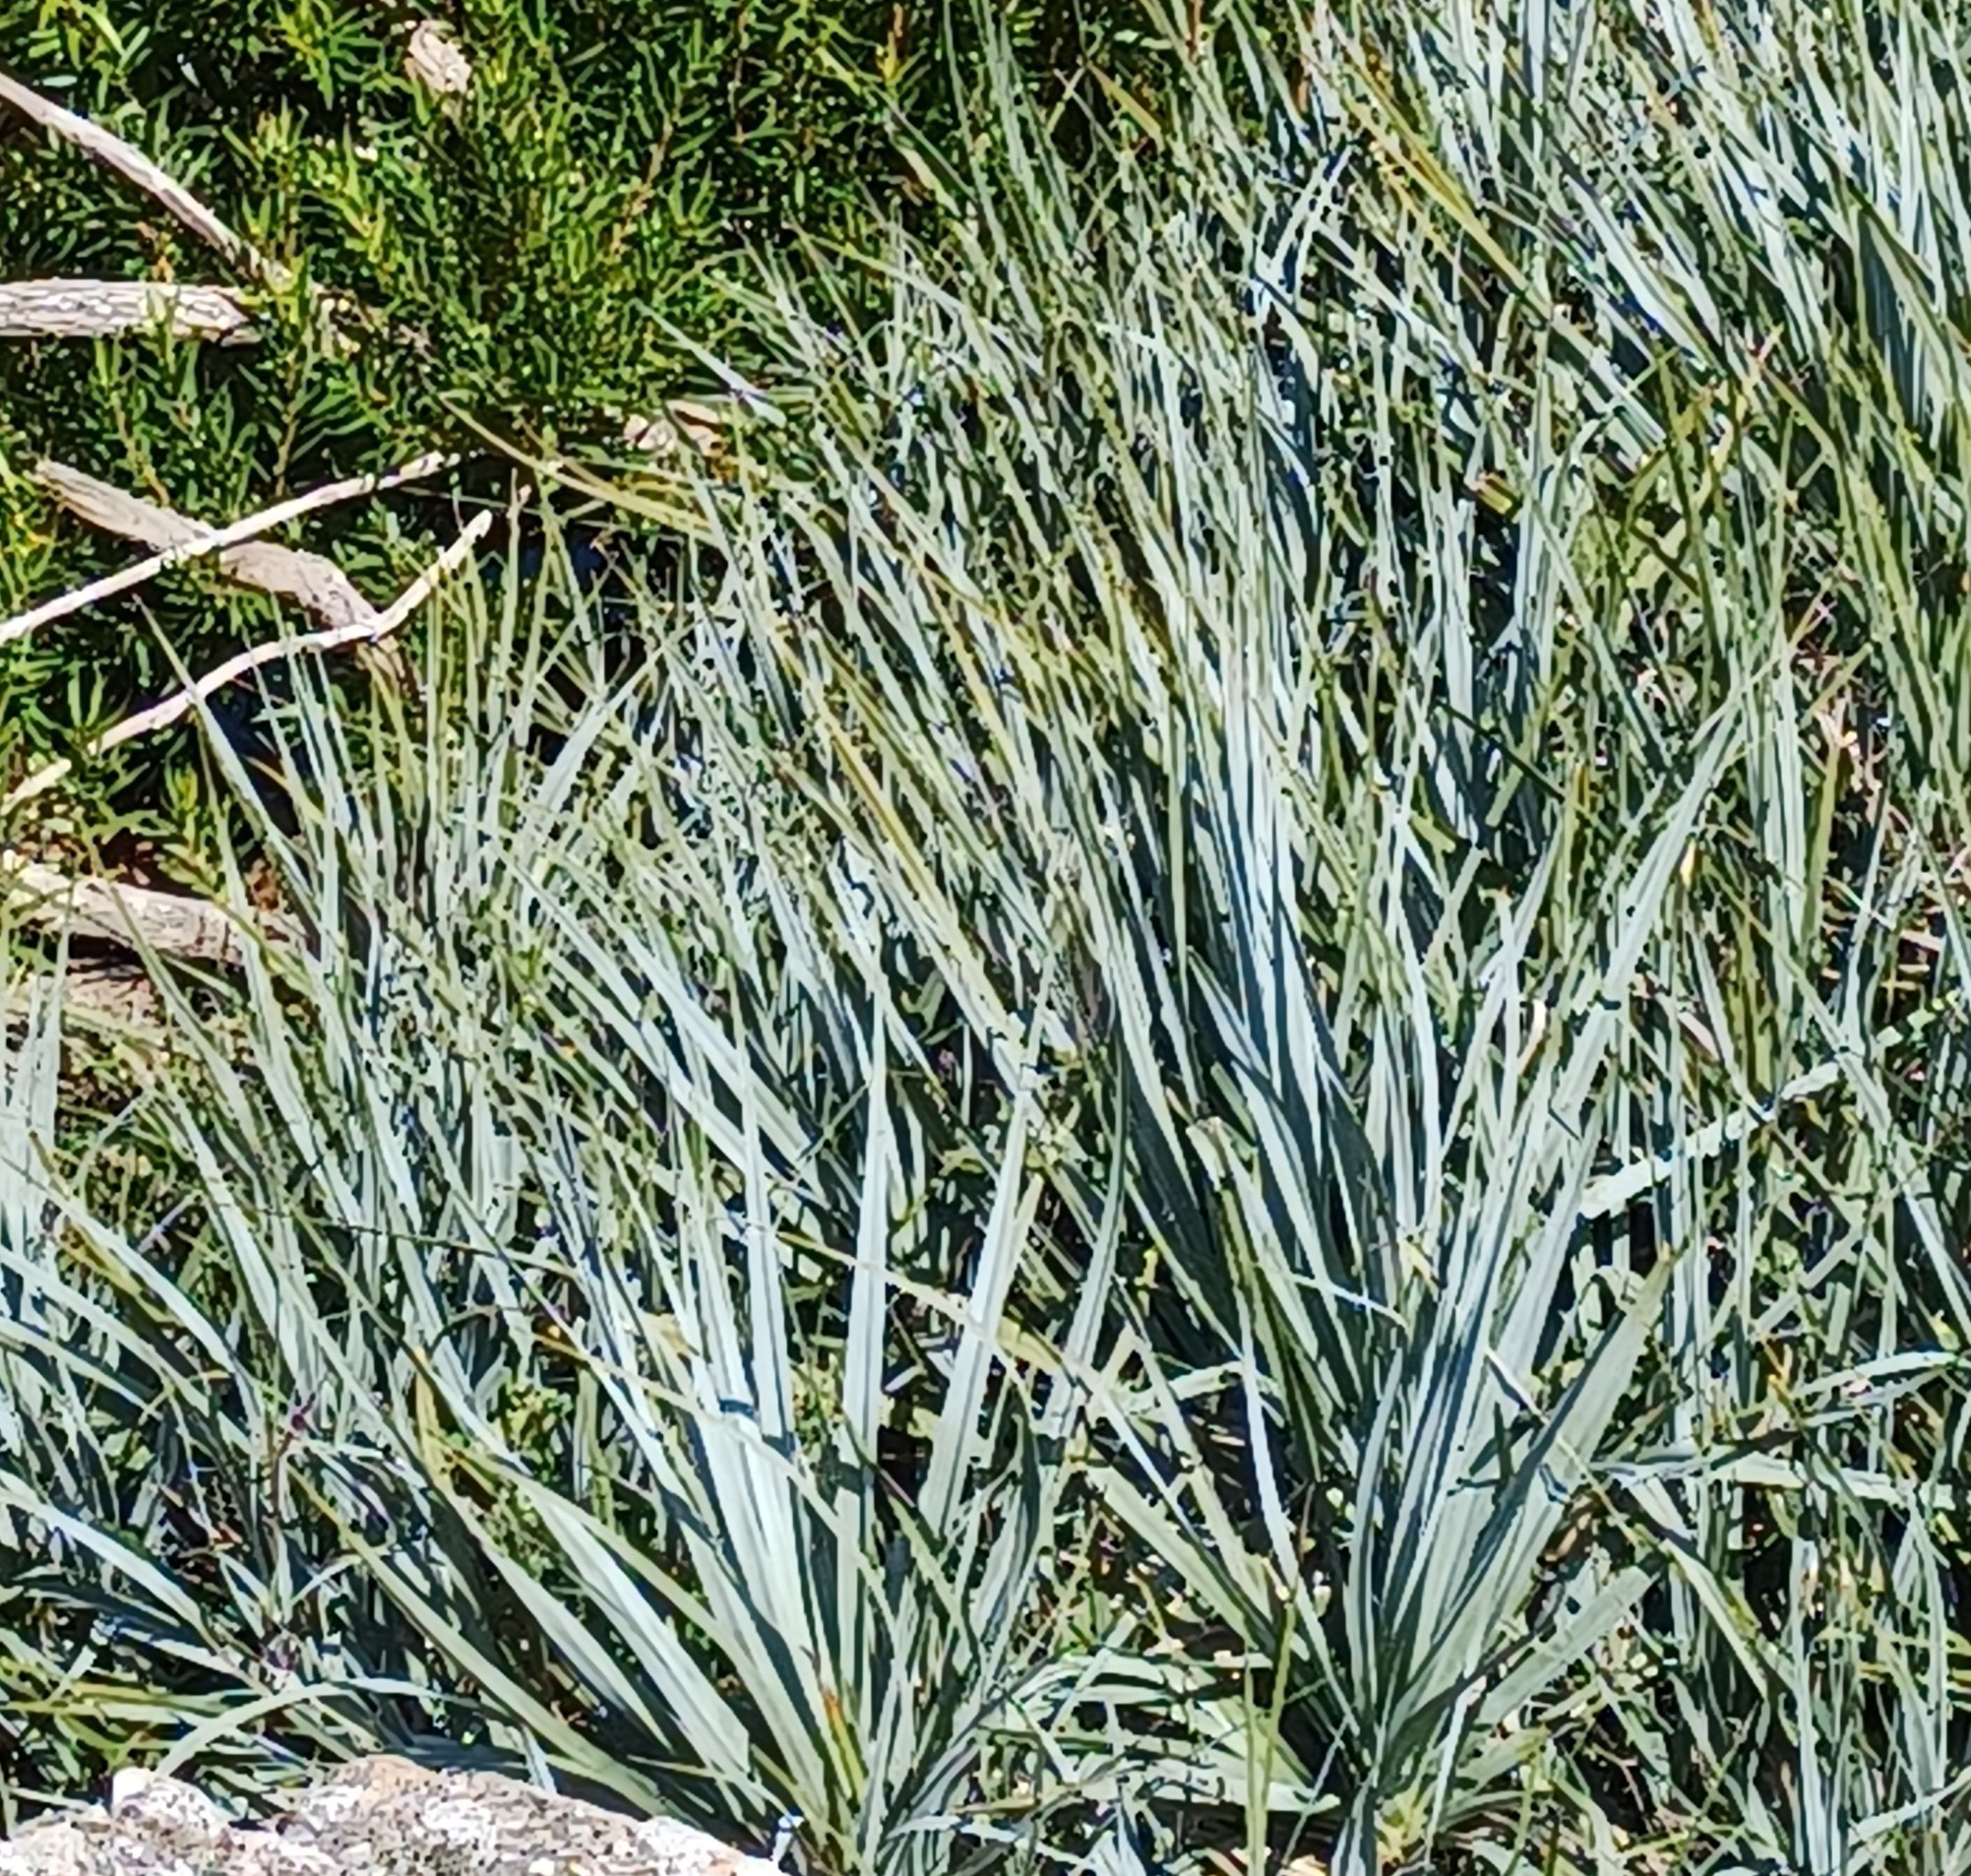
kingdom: Plantae
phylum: Tracheophyta
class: Liliopsida
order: Poales
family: Thurniaceae
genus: Prionium
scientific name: Prionium serratum
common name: Palmiet
